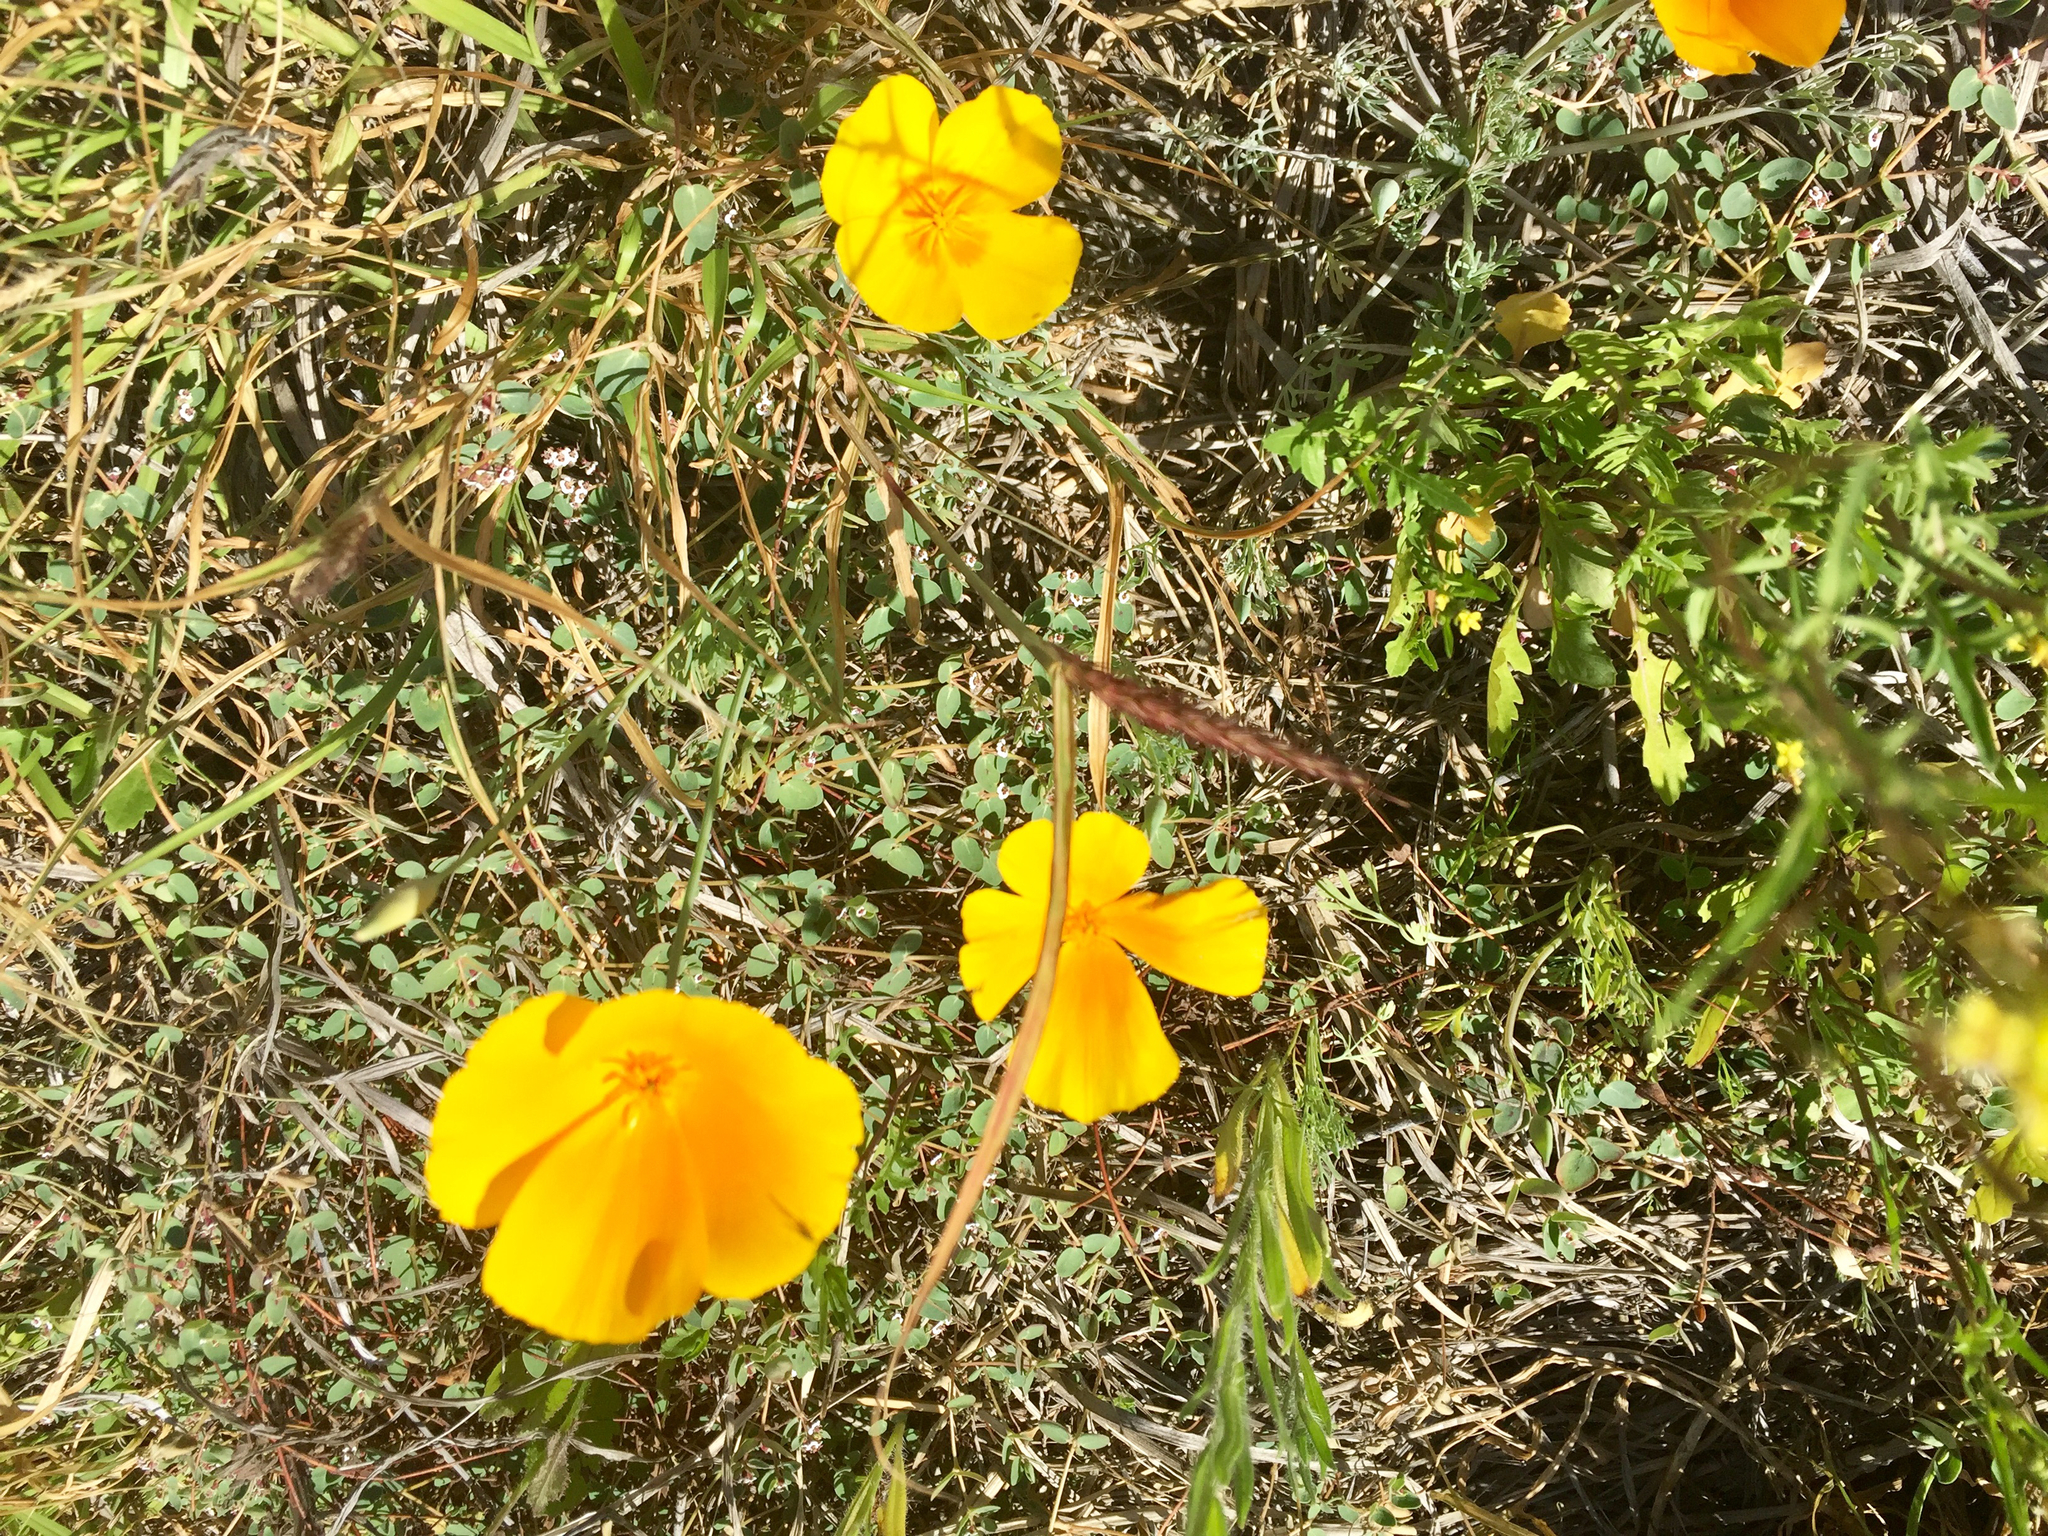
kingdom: Plantae
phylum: Tracheophyta
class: Magnoliopsida
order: Ranunculales
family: Papaveraceae
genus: Eschscholzia
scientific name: Eschscholzia californica
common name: California poppy
